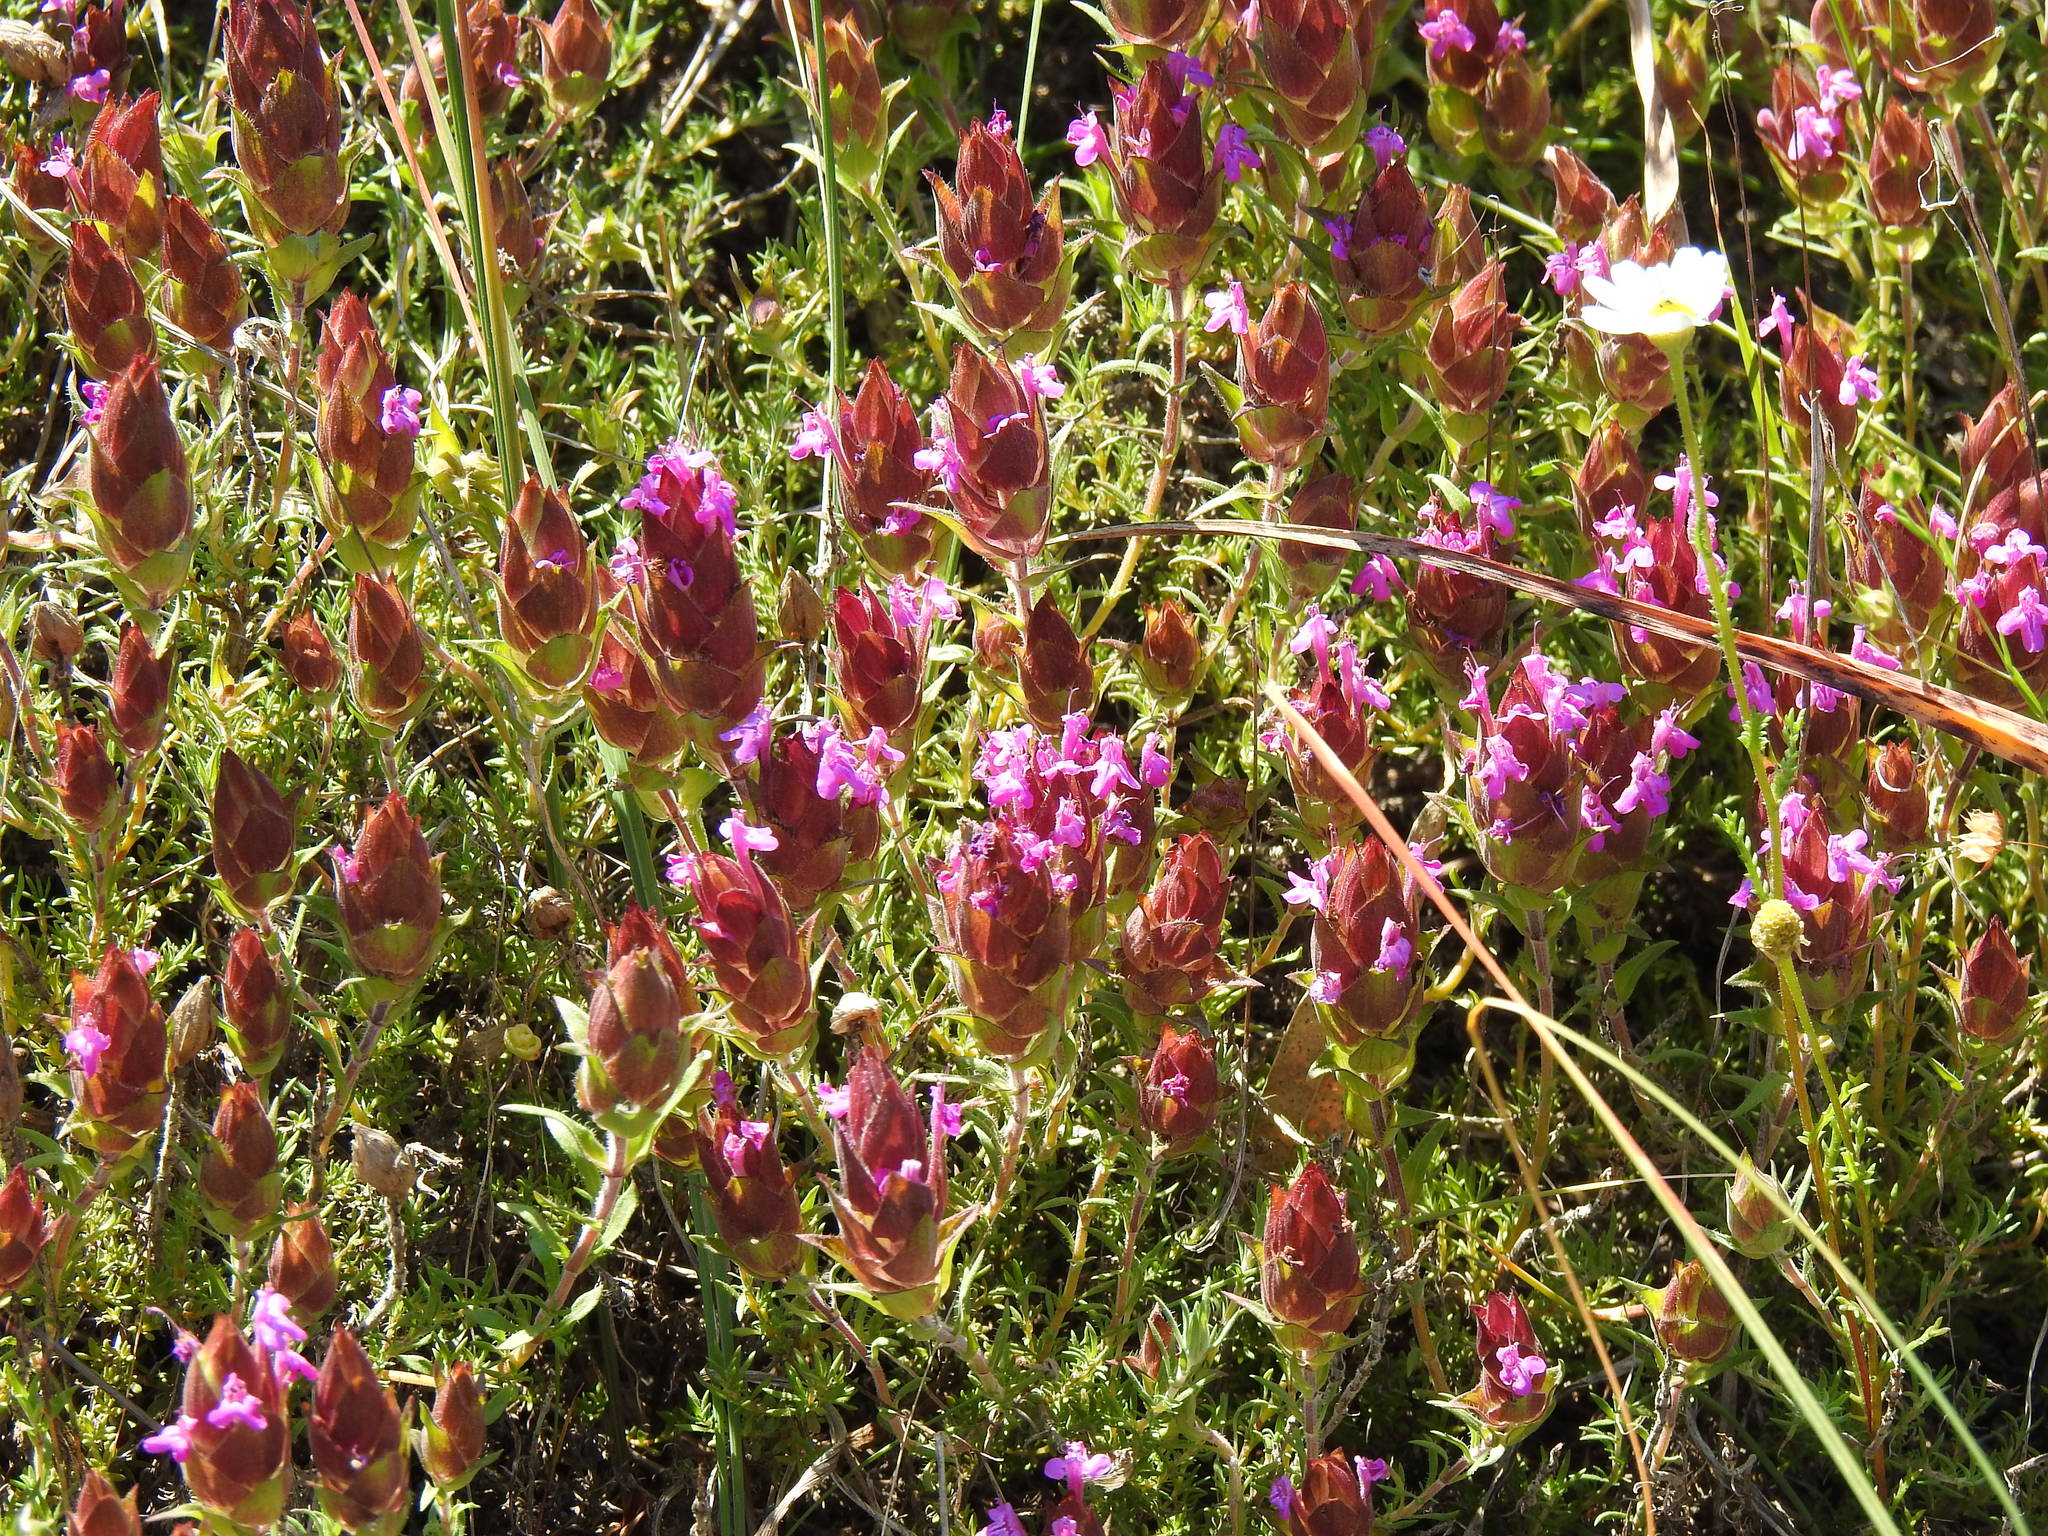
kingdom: Plantae
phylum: Tracheophyta
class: Magnoliopsida
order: Lamiales
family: Lamiaceae
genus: Thymus
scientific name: Thymus lotocephalus
